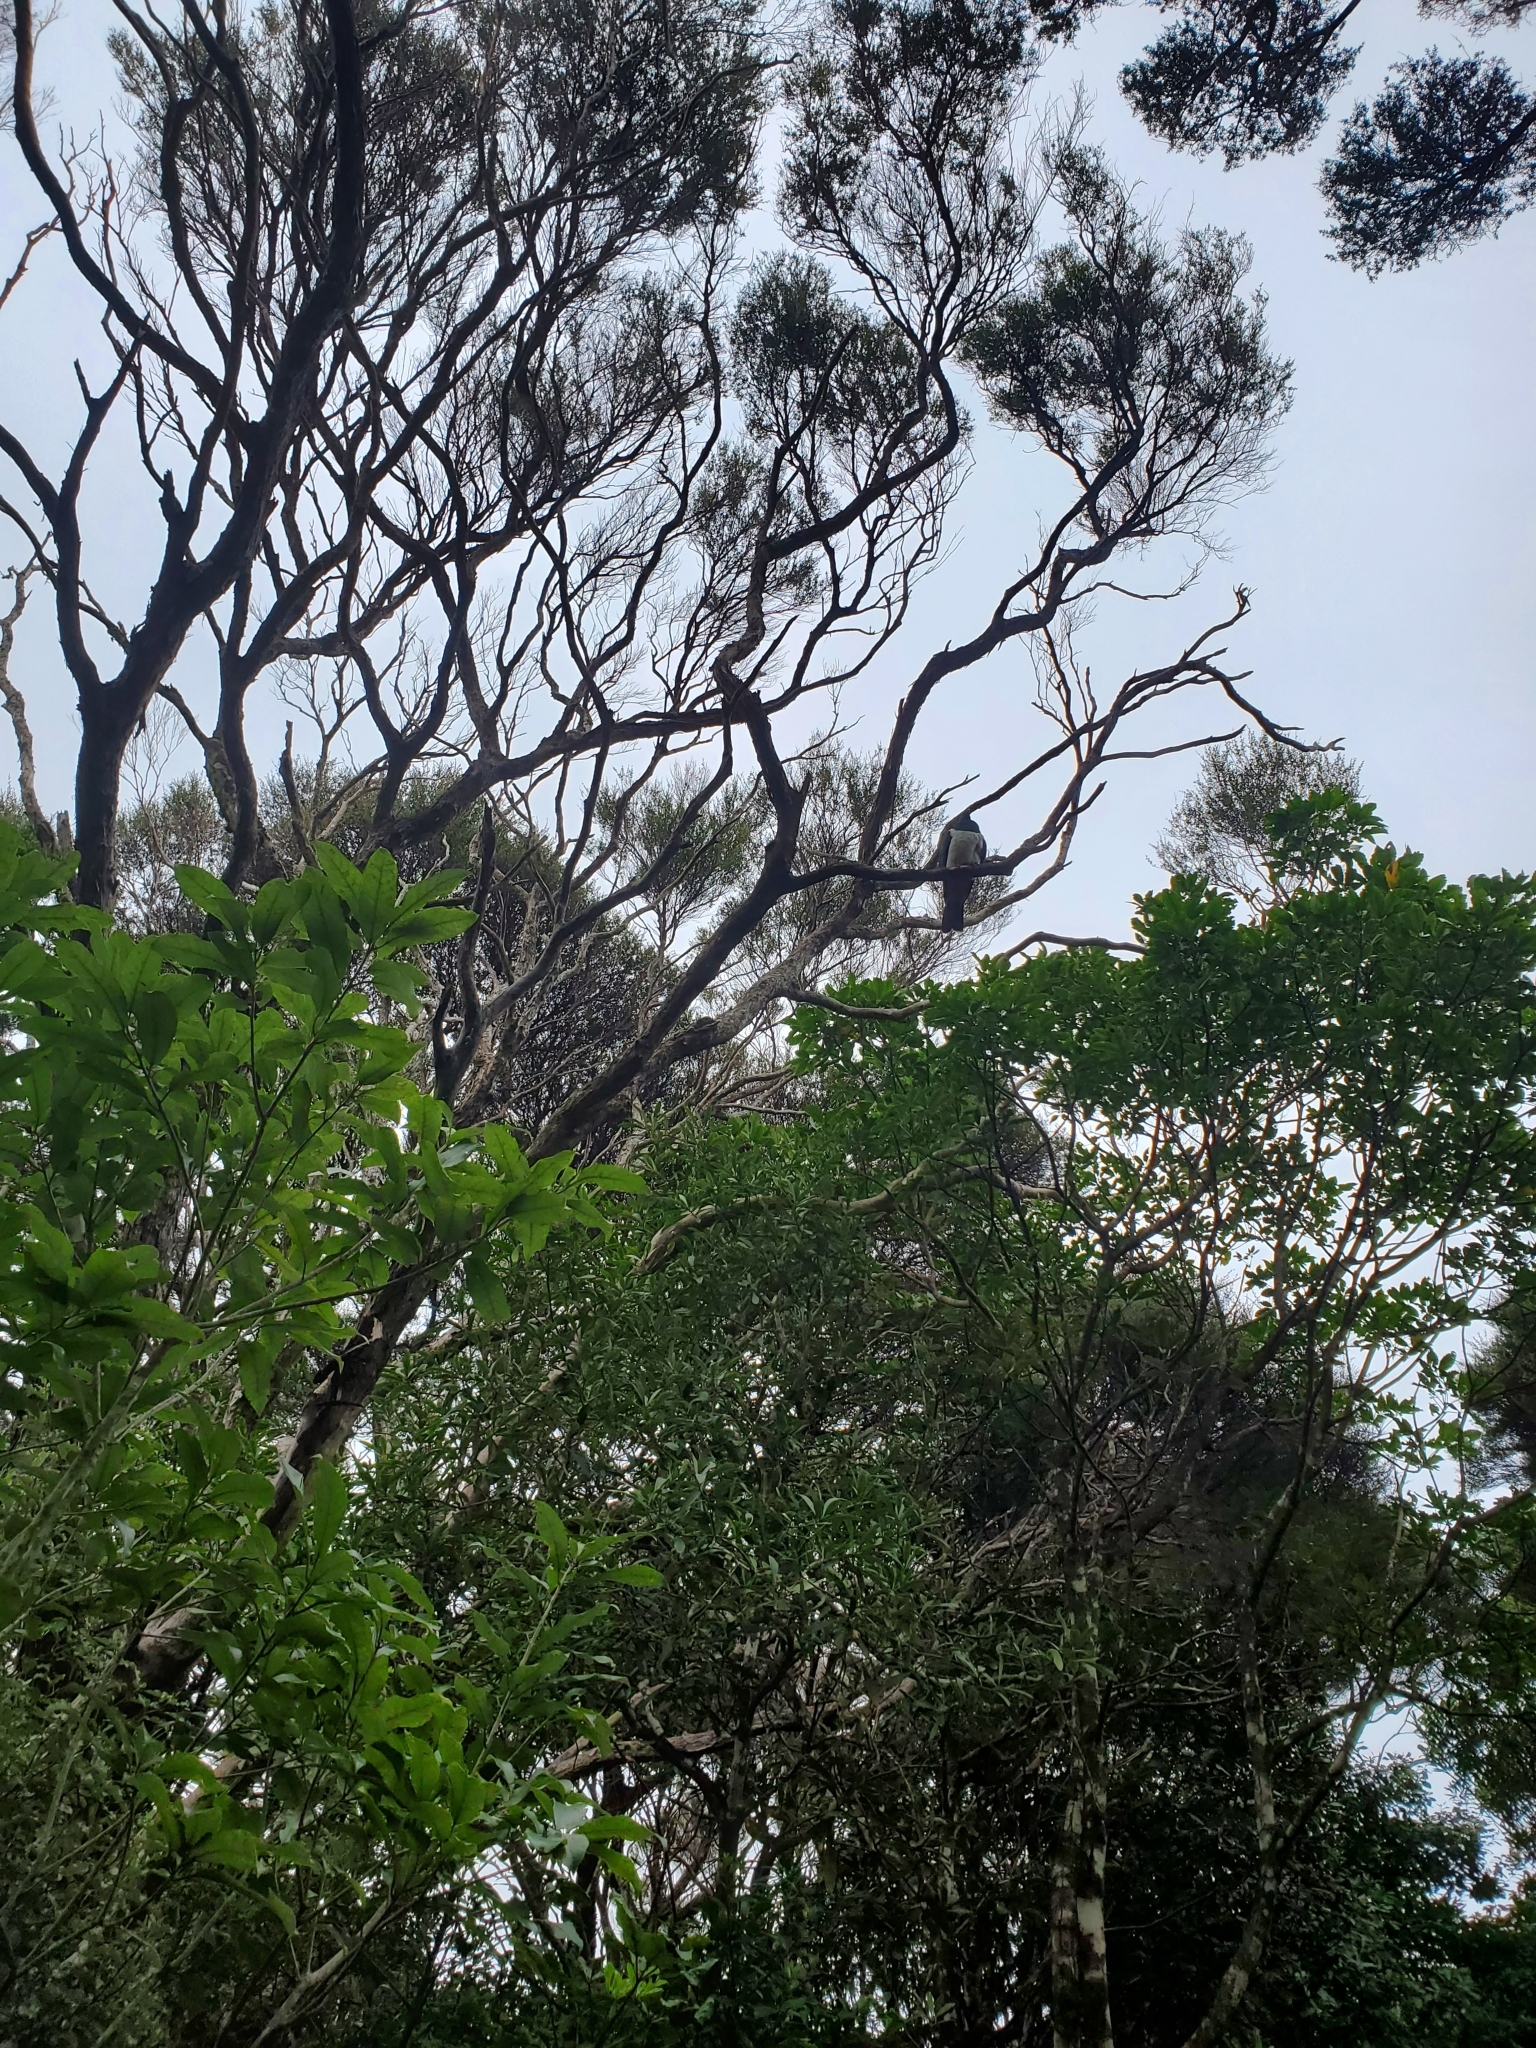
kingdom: Animalia
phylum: Chordata
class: Aves
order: Columbiformes
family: Columbidae
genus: Hemiphaga
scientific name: Hemiphaga novaeseelandiae
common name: New zealand pigeon
